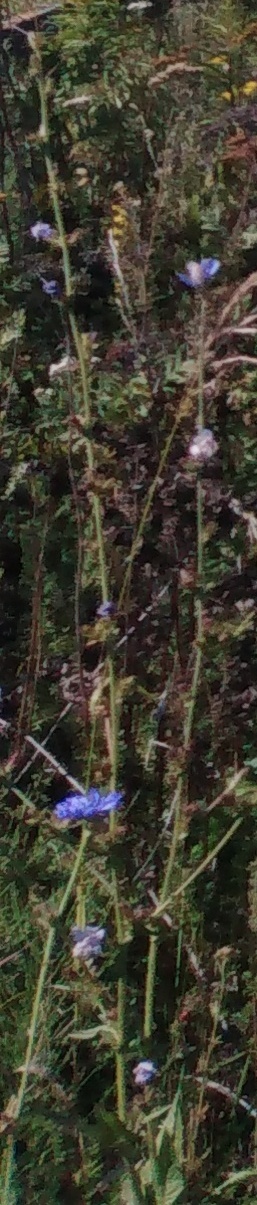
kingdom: Plantae
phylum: Tracheophyta
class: Magnoliopsida
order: Asterales
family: Asteraceae
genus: Cichorium
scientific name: Cichorium intybus
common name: Chicory
